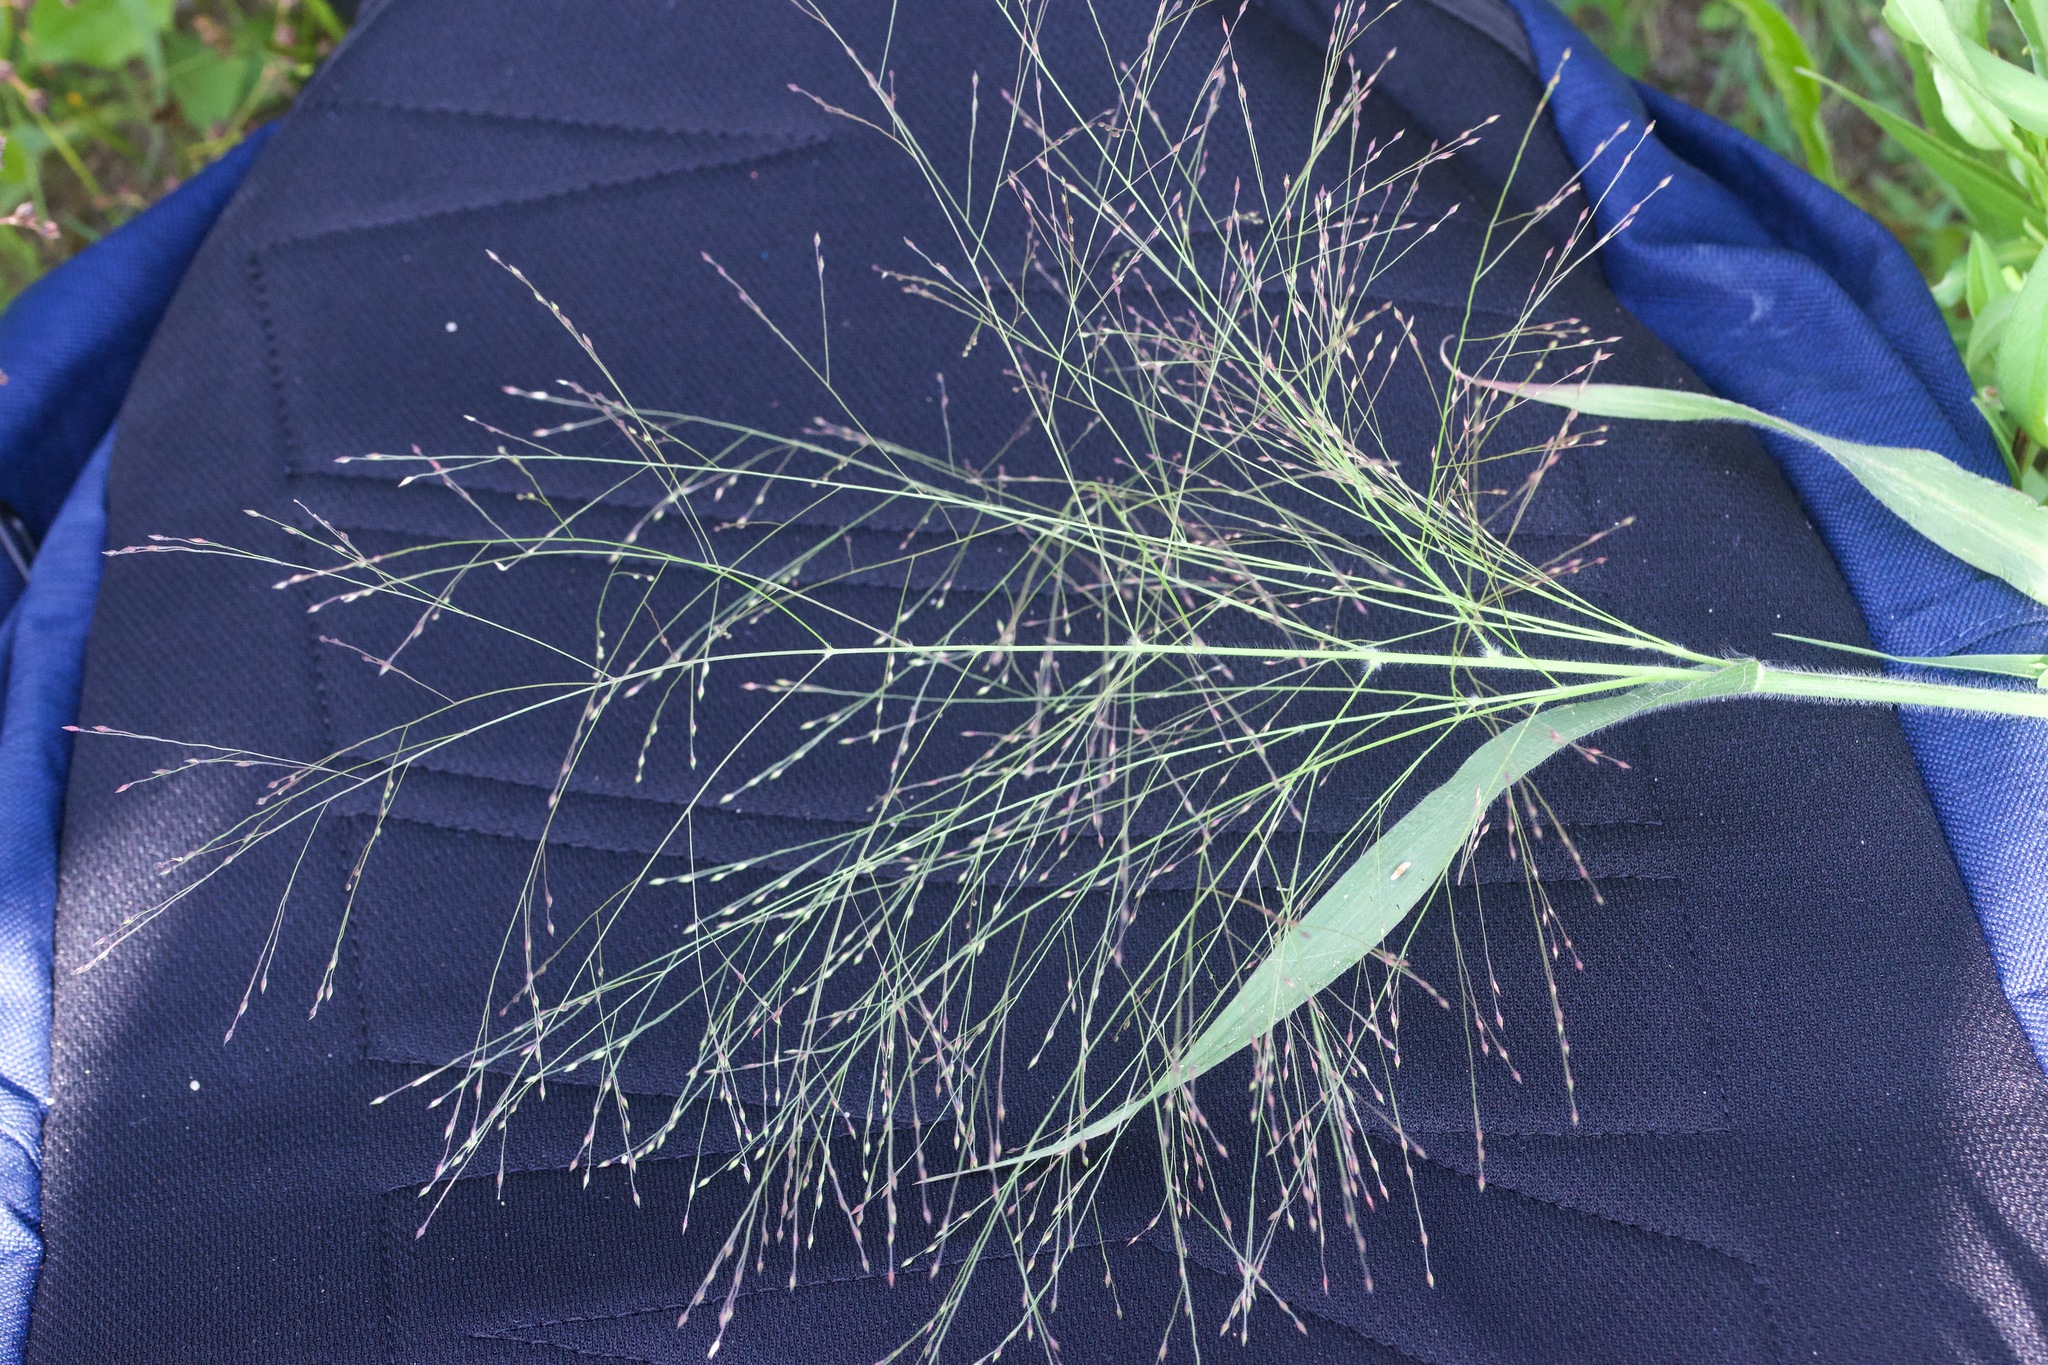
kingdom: Plantae
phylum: Tracheophyta
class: Liliopsida
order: Poales
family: Poaceae
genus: Panicum
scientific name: Panicum capillare
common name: Witch-grass
